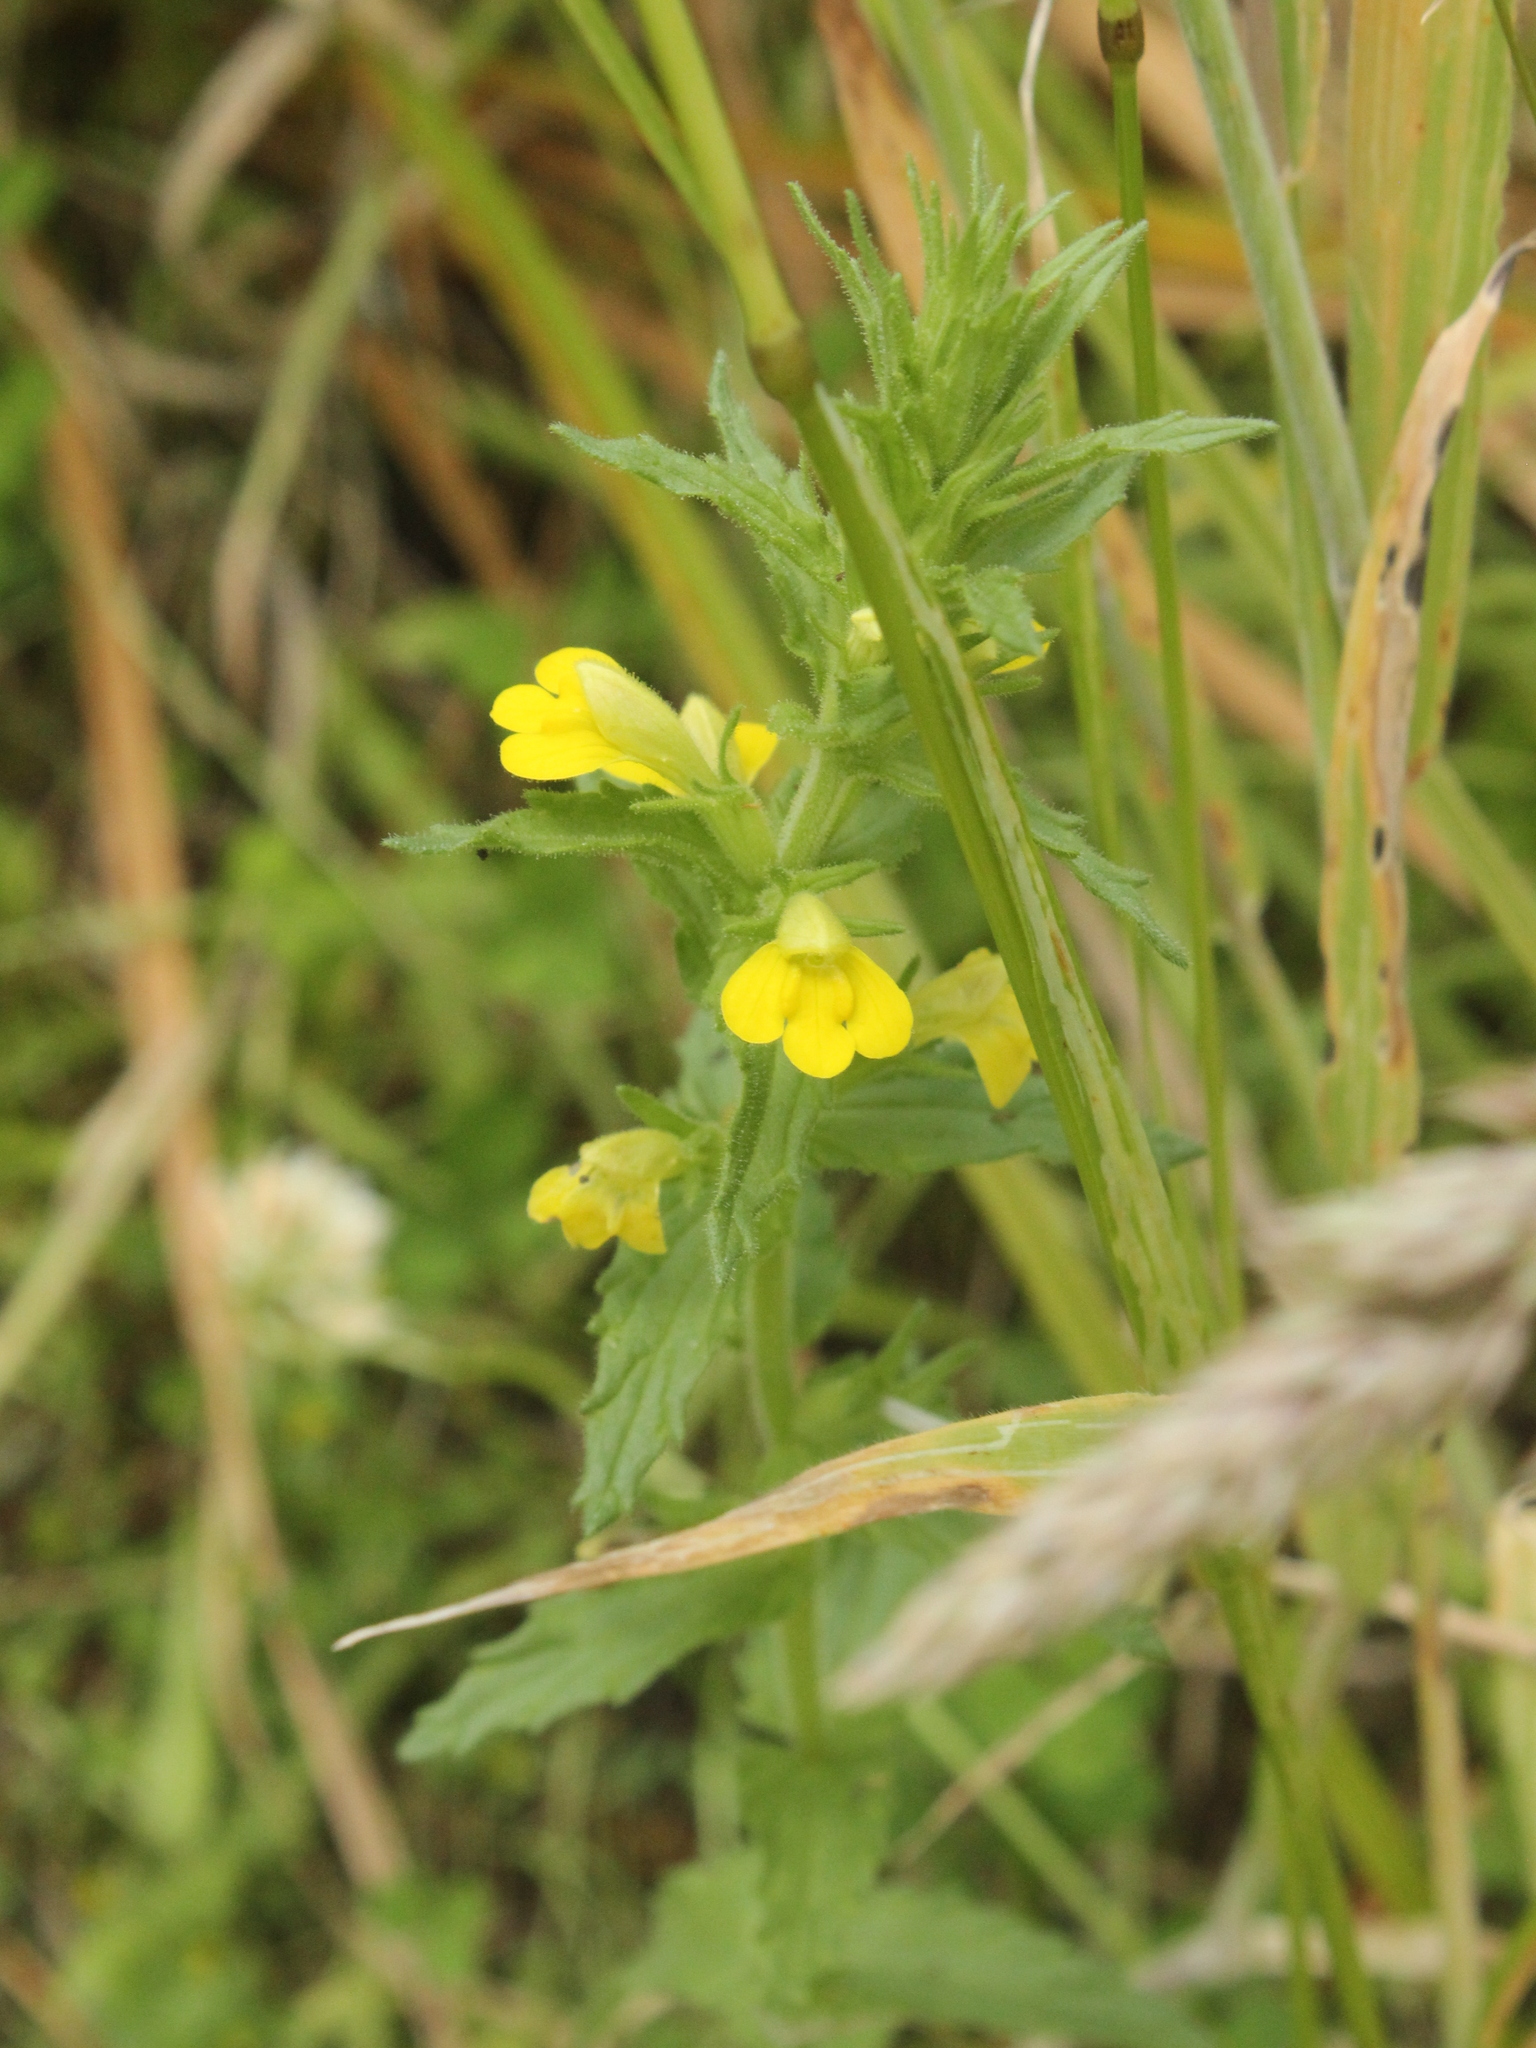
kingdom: Plantae
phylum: Tracheophyta
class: Magnoliopsida
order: Lamiales
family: Orobanchaceae
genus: Bellardia
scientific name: Bellardia viscosa
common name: Sticky parentucellia
